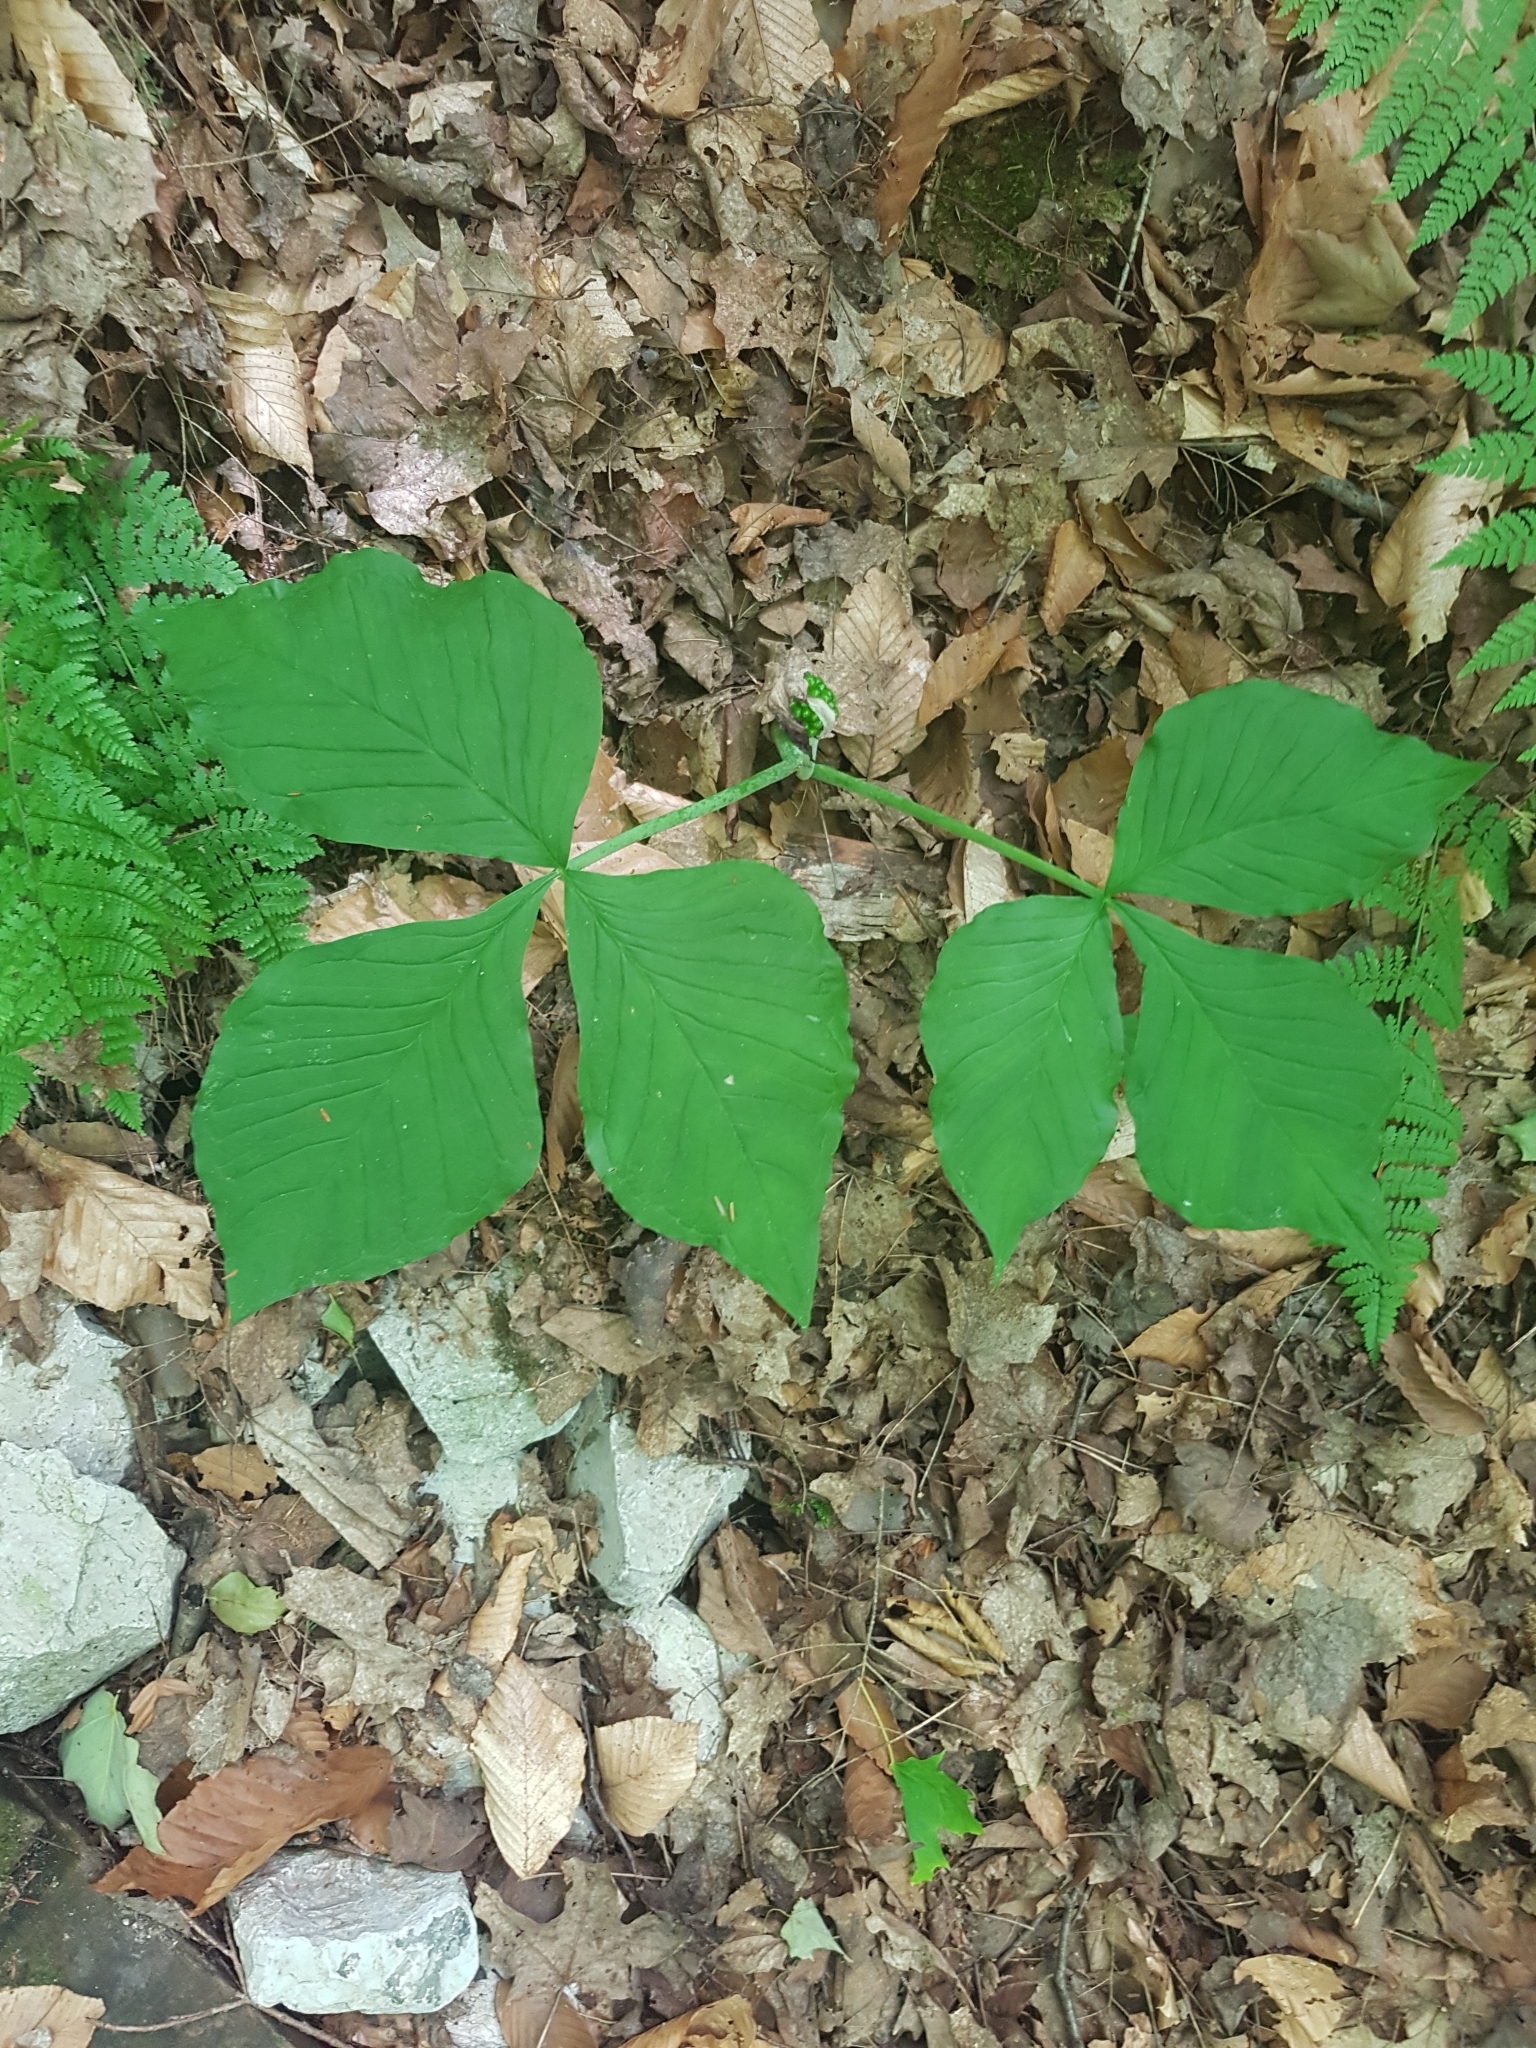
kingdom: Plantae
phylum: Tracheophyta
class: Liliopsida
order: Alismatales
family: Araceae
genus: Arisaema
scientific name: Arisaema triphyllum
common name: Jack-in-the-pulpit
